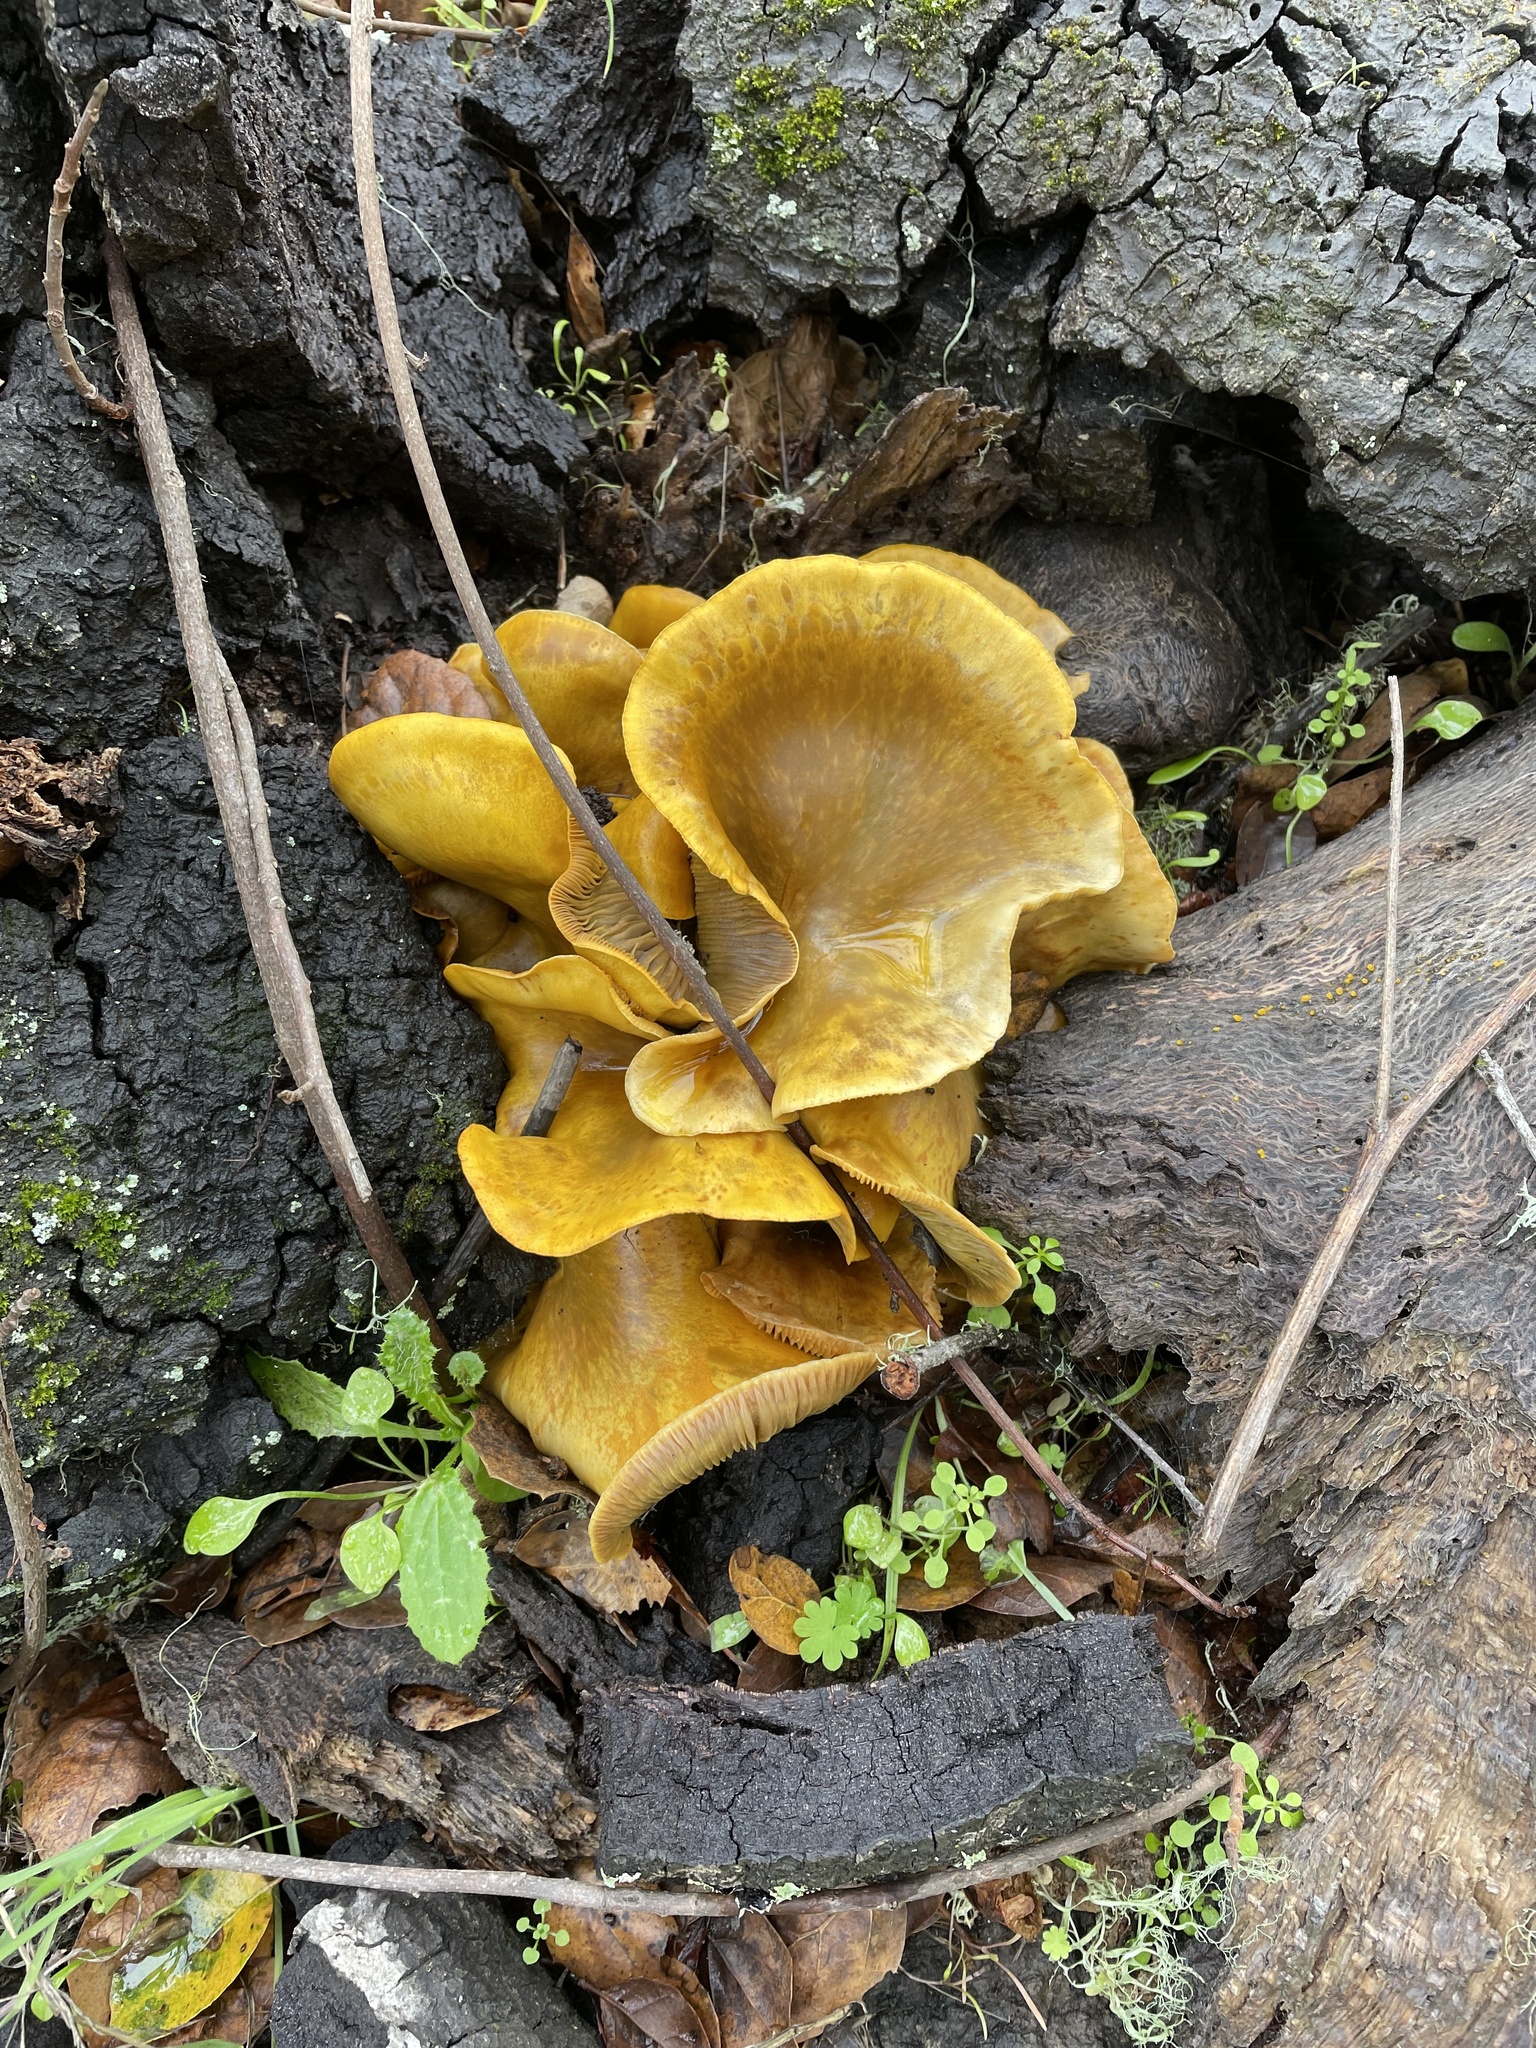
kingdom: Fungi
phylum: Basidiomycota
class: Agaricomycetes
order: Agaricales
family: Omphalotaceae
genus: Omphalotus
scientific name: Omphalotus olivascens
